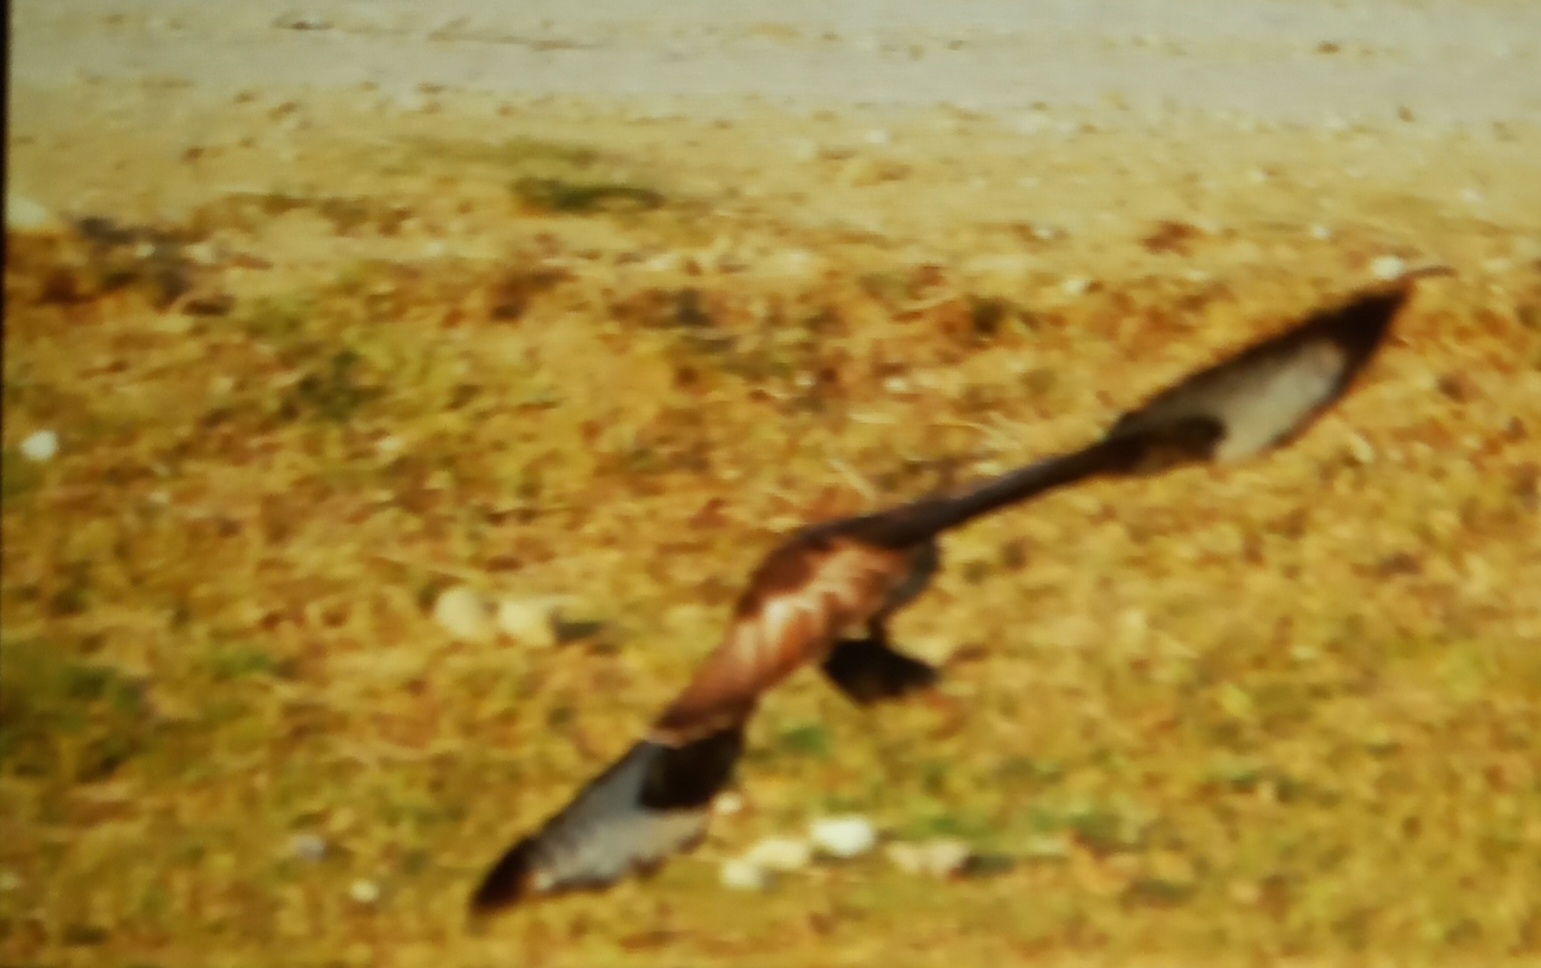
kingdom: Animalia
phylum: Chordata
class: Aves
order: Accipitriformes
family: Accipitridae
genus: Buteo
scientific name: Buteo buteo
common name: Common buzzard
